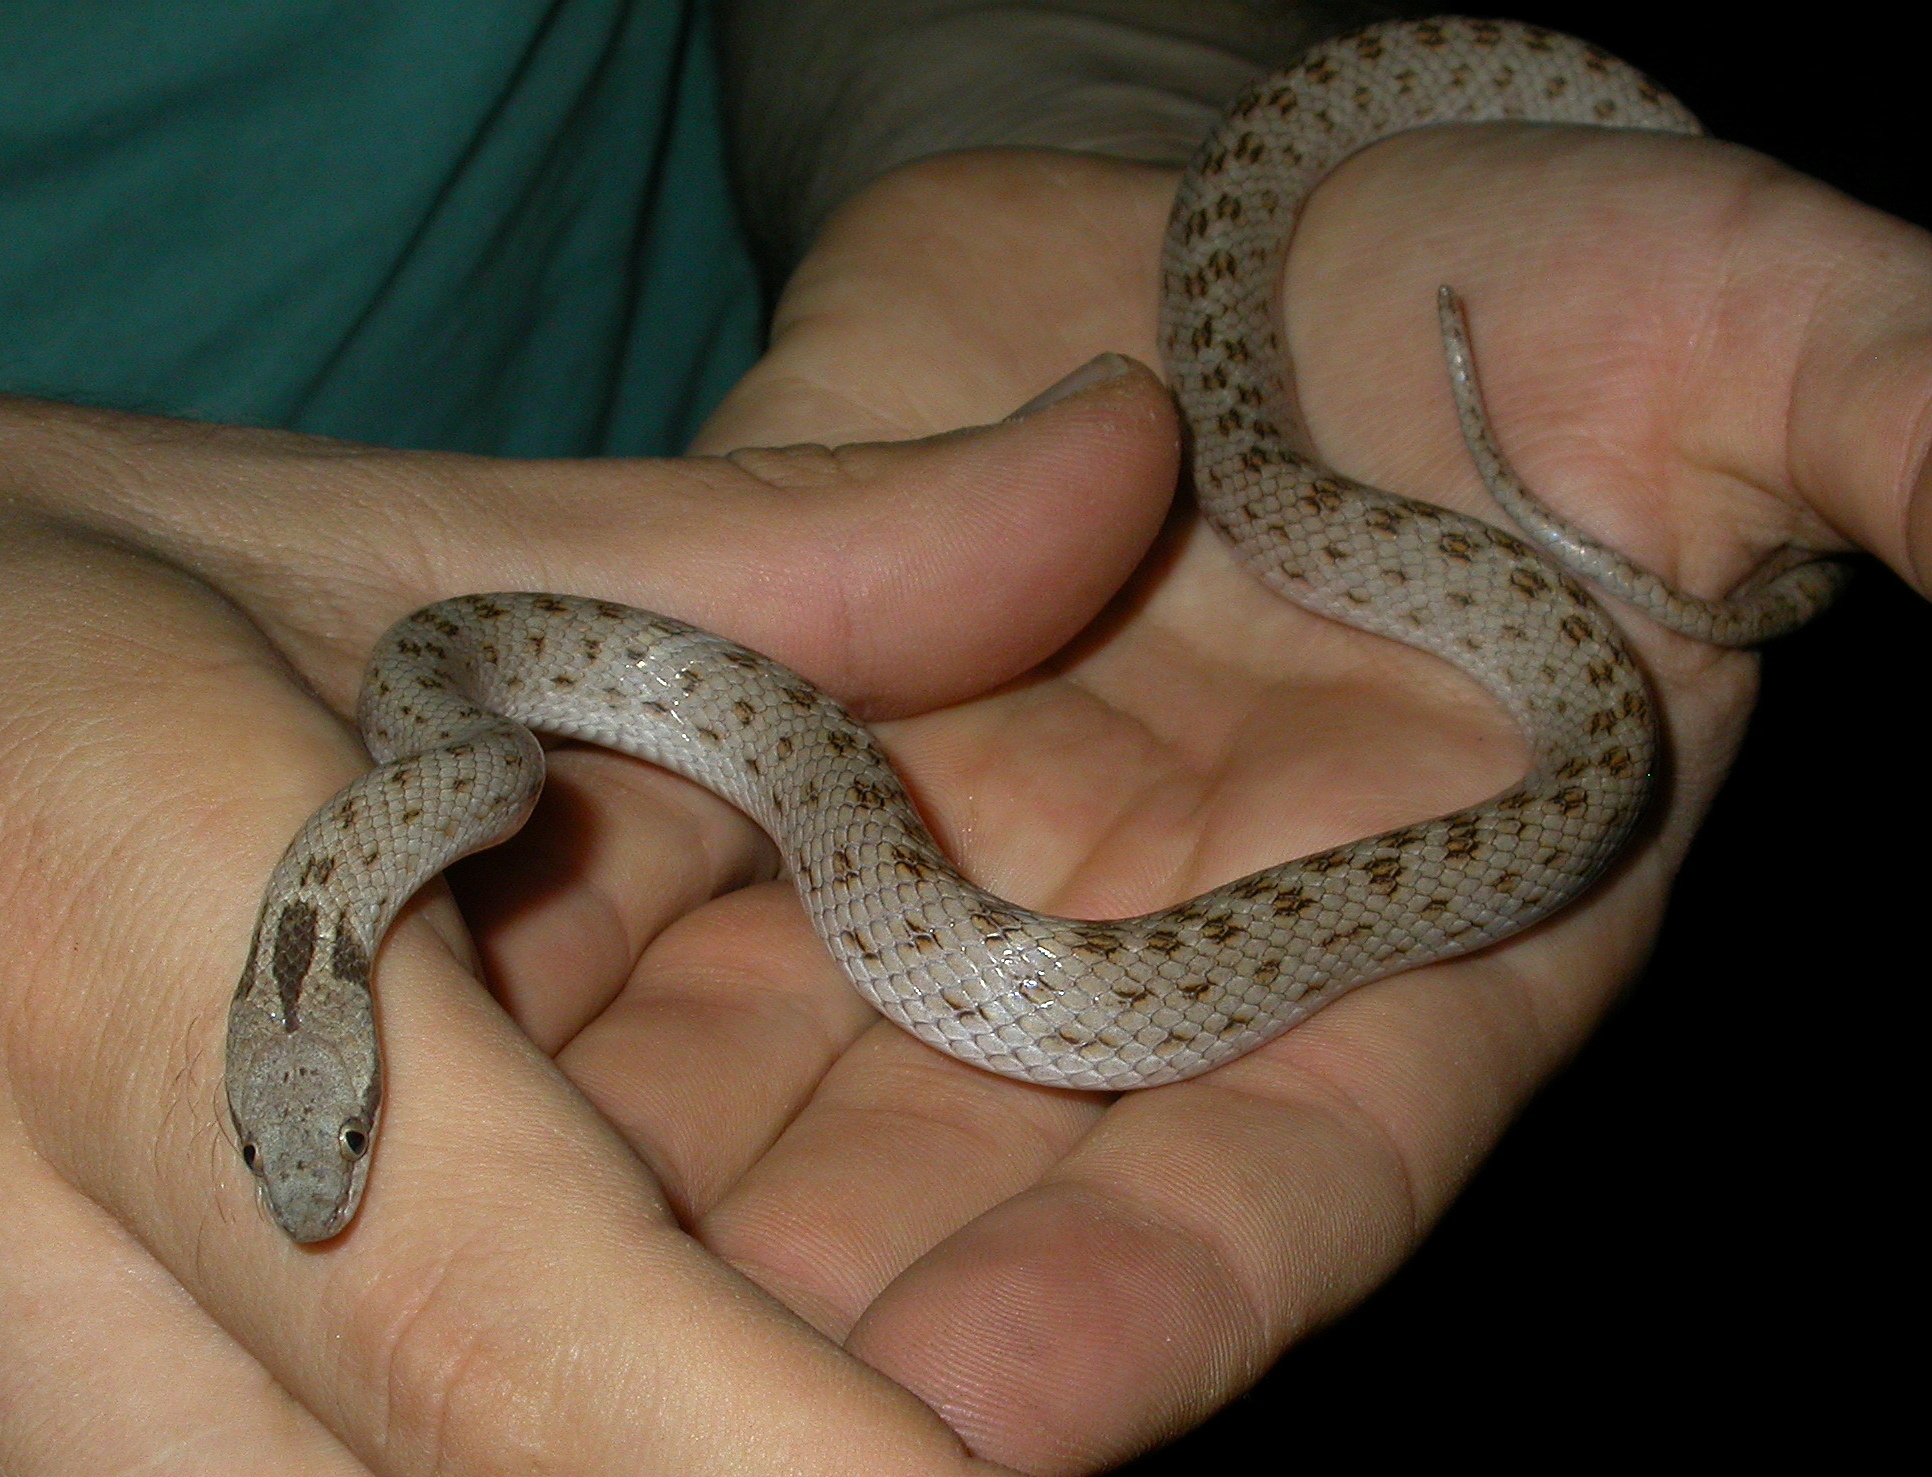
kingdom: Animalia
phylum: Chordata
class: Squamata
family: Colubridae
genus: Hypsiglena
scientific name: Hypsiglena chlorophaea
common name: Desert nightsnake
